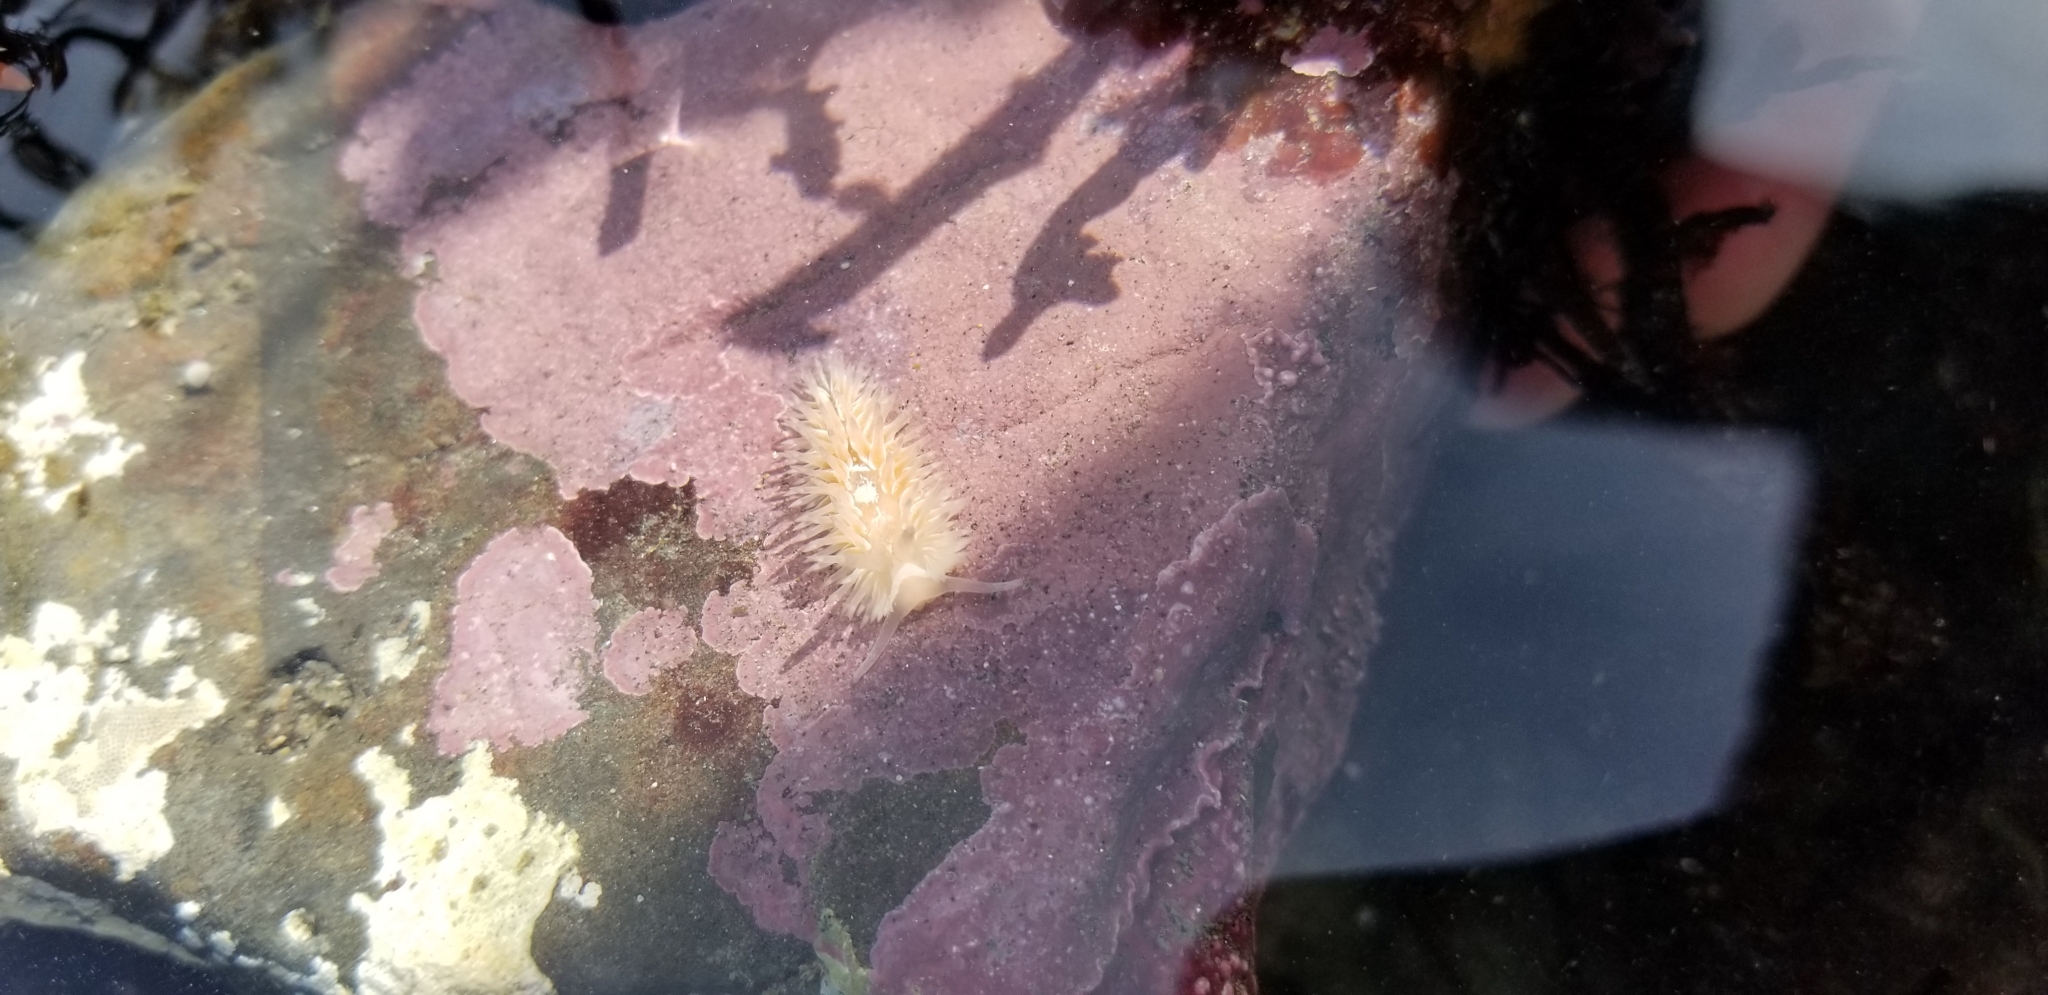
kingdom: Animalia
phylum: Mollusca
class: Gastropoda
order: Nudibranchia
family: Aeolidiidae
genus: Aeolidia
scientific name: Aeolidia loui
